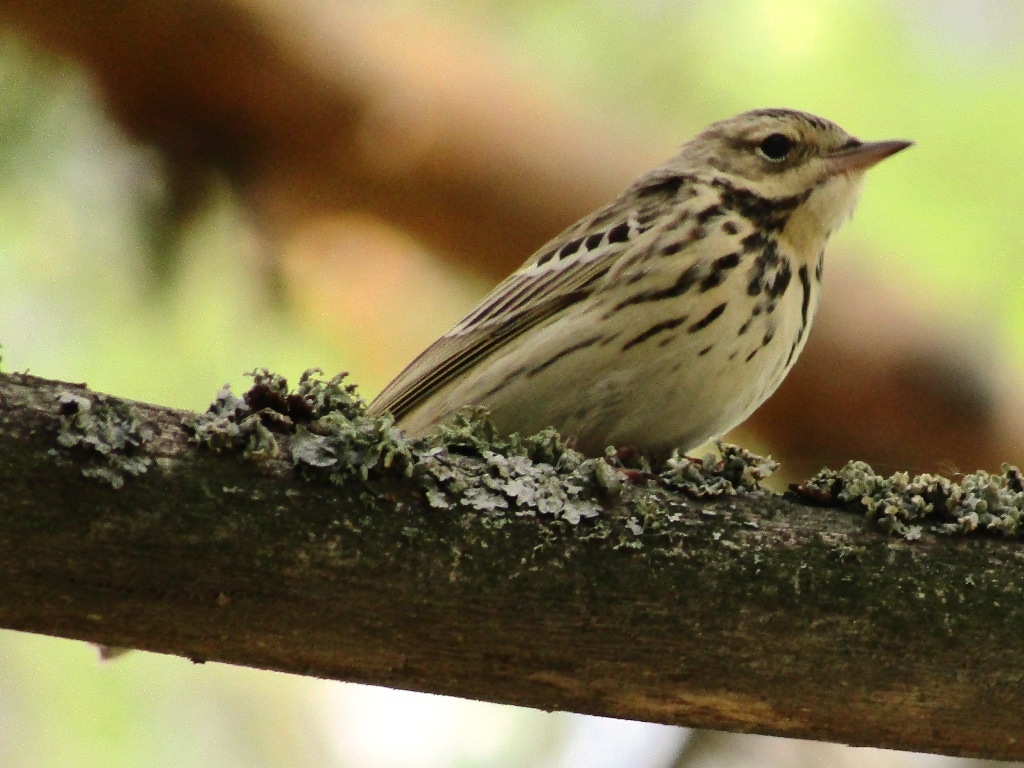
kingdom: Animalia
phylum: Chordata
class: Aves
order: Passeriformes
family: Motacillidae
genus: Anthus
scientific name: Anthus trivialis
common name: Tree pipit
